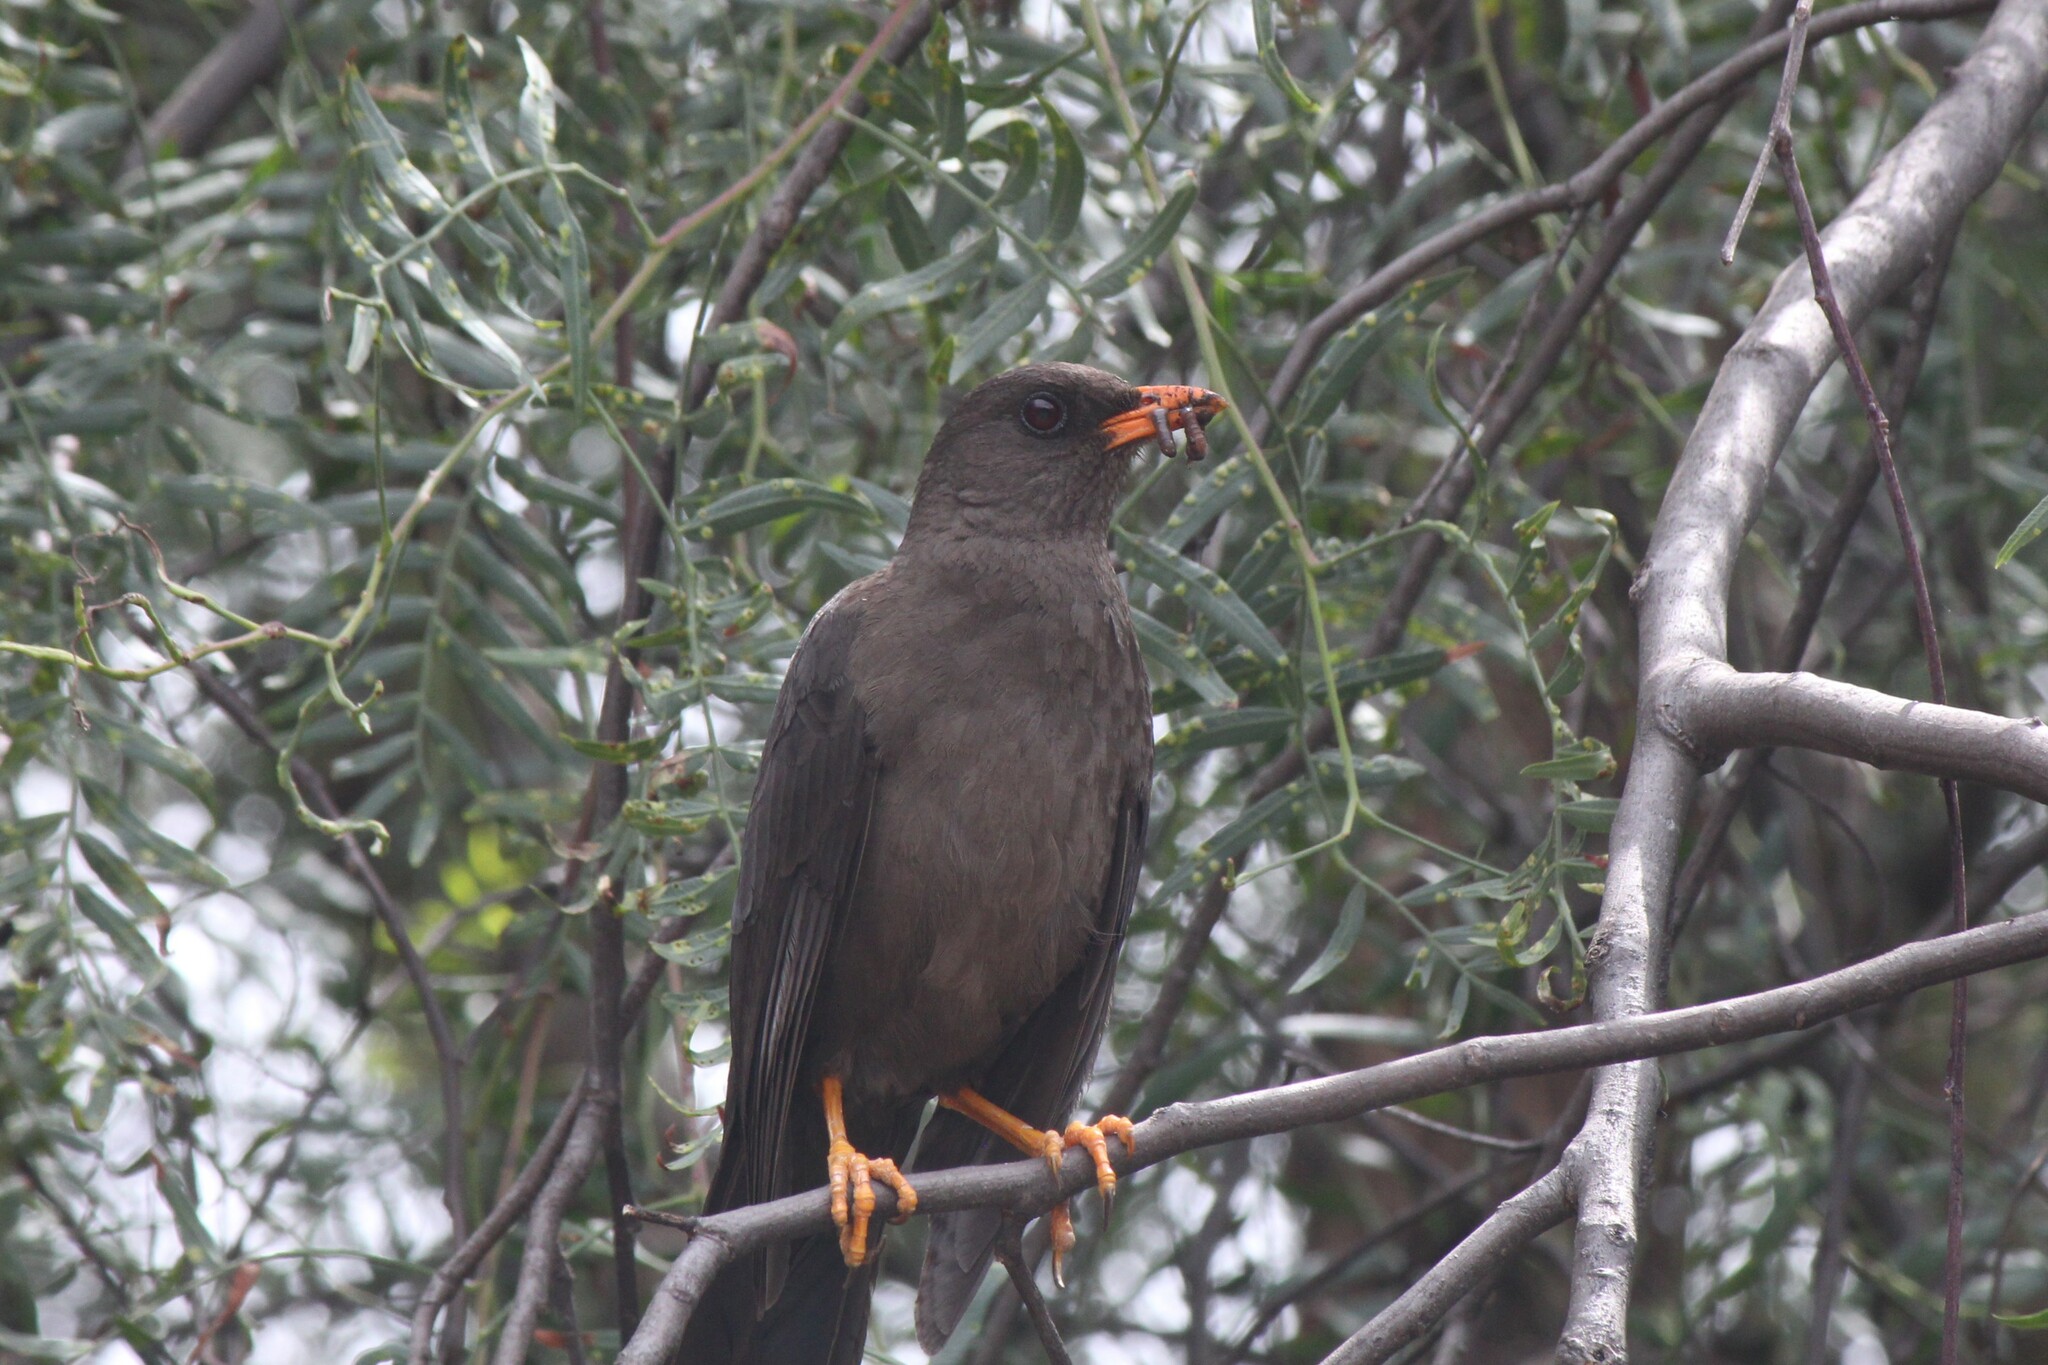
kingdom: Animalia
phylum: Chordata
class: Aves
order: Passeriformes
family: Turdidae
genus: Turdus
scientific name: Turdus fuscater
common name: Great thrush
